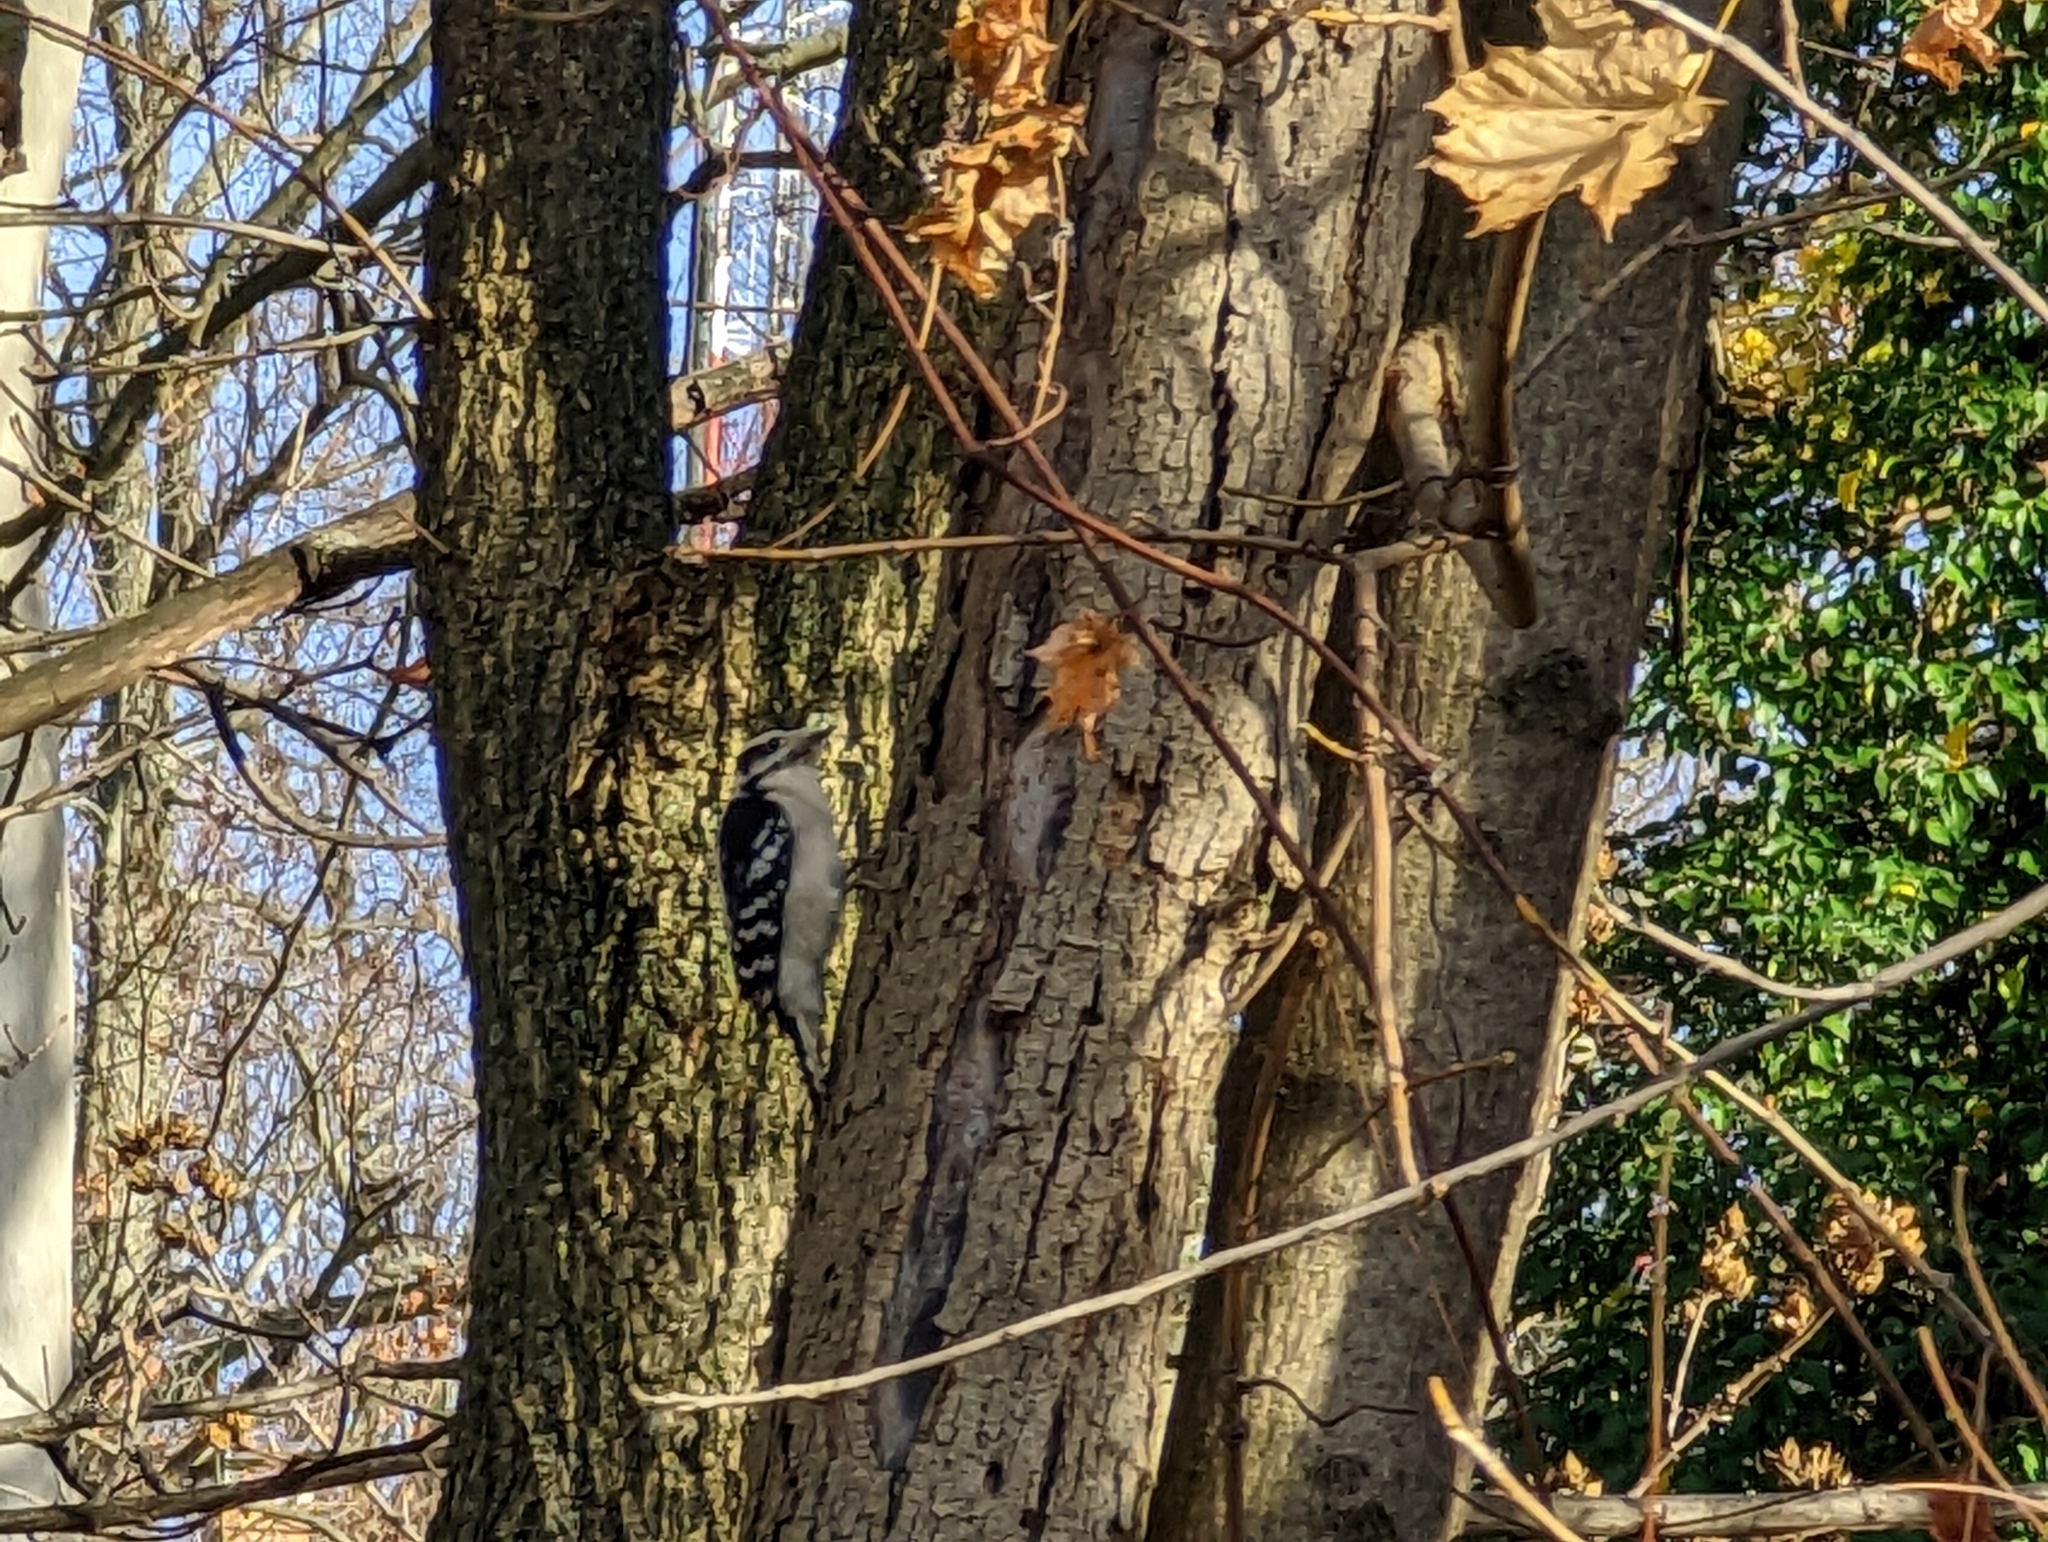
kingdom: Animalia
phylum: Chordata
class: Aves
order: Piciformes
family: Picidae
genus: Dryobates
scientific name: Dryobates pubescens
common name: Downy woodpecker
